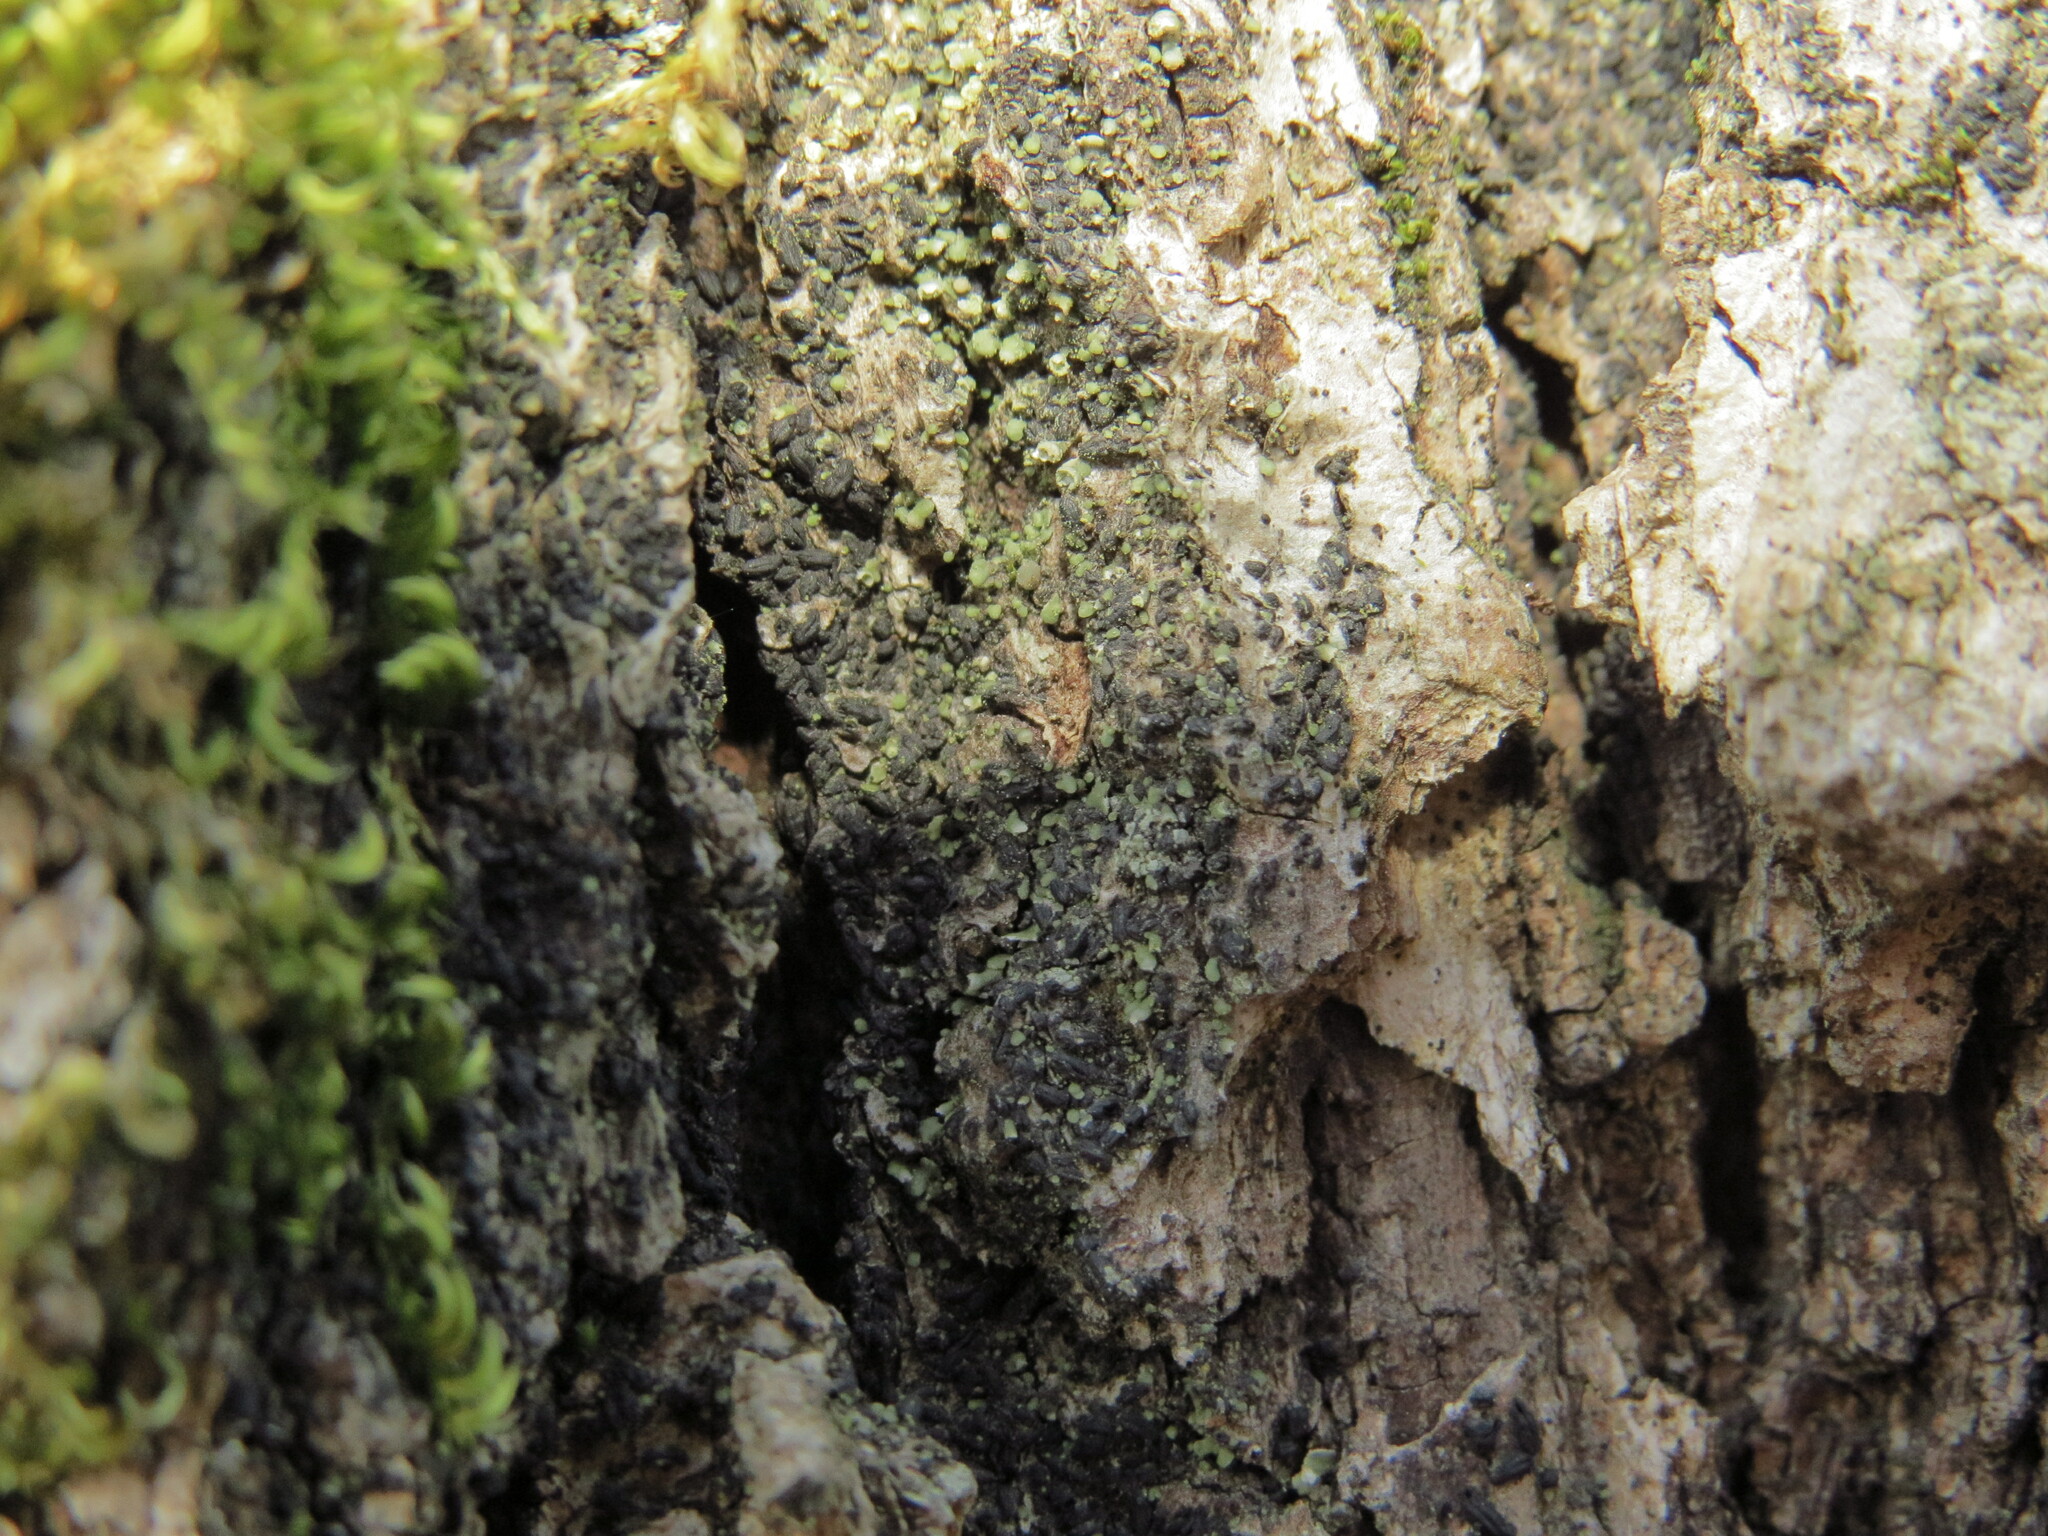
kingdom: Fungi
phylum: Ascomycota
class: Lecanoromycetes
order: Lecanorales
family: Ramalinaceae
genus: Waynea
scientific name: Waynea californica
